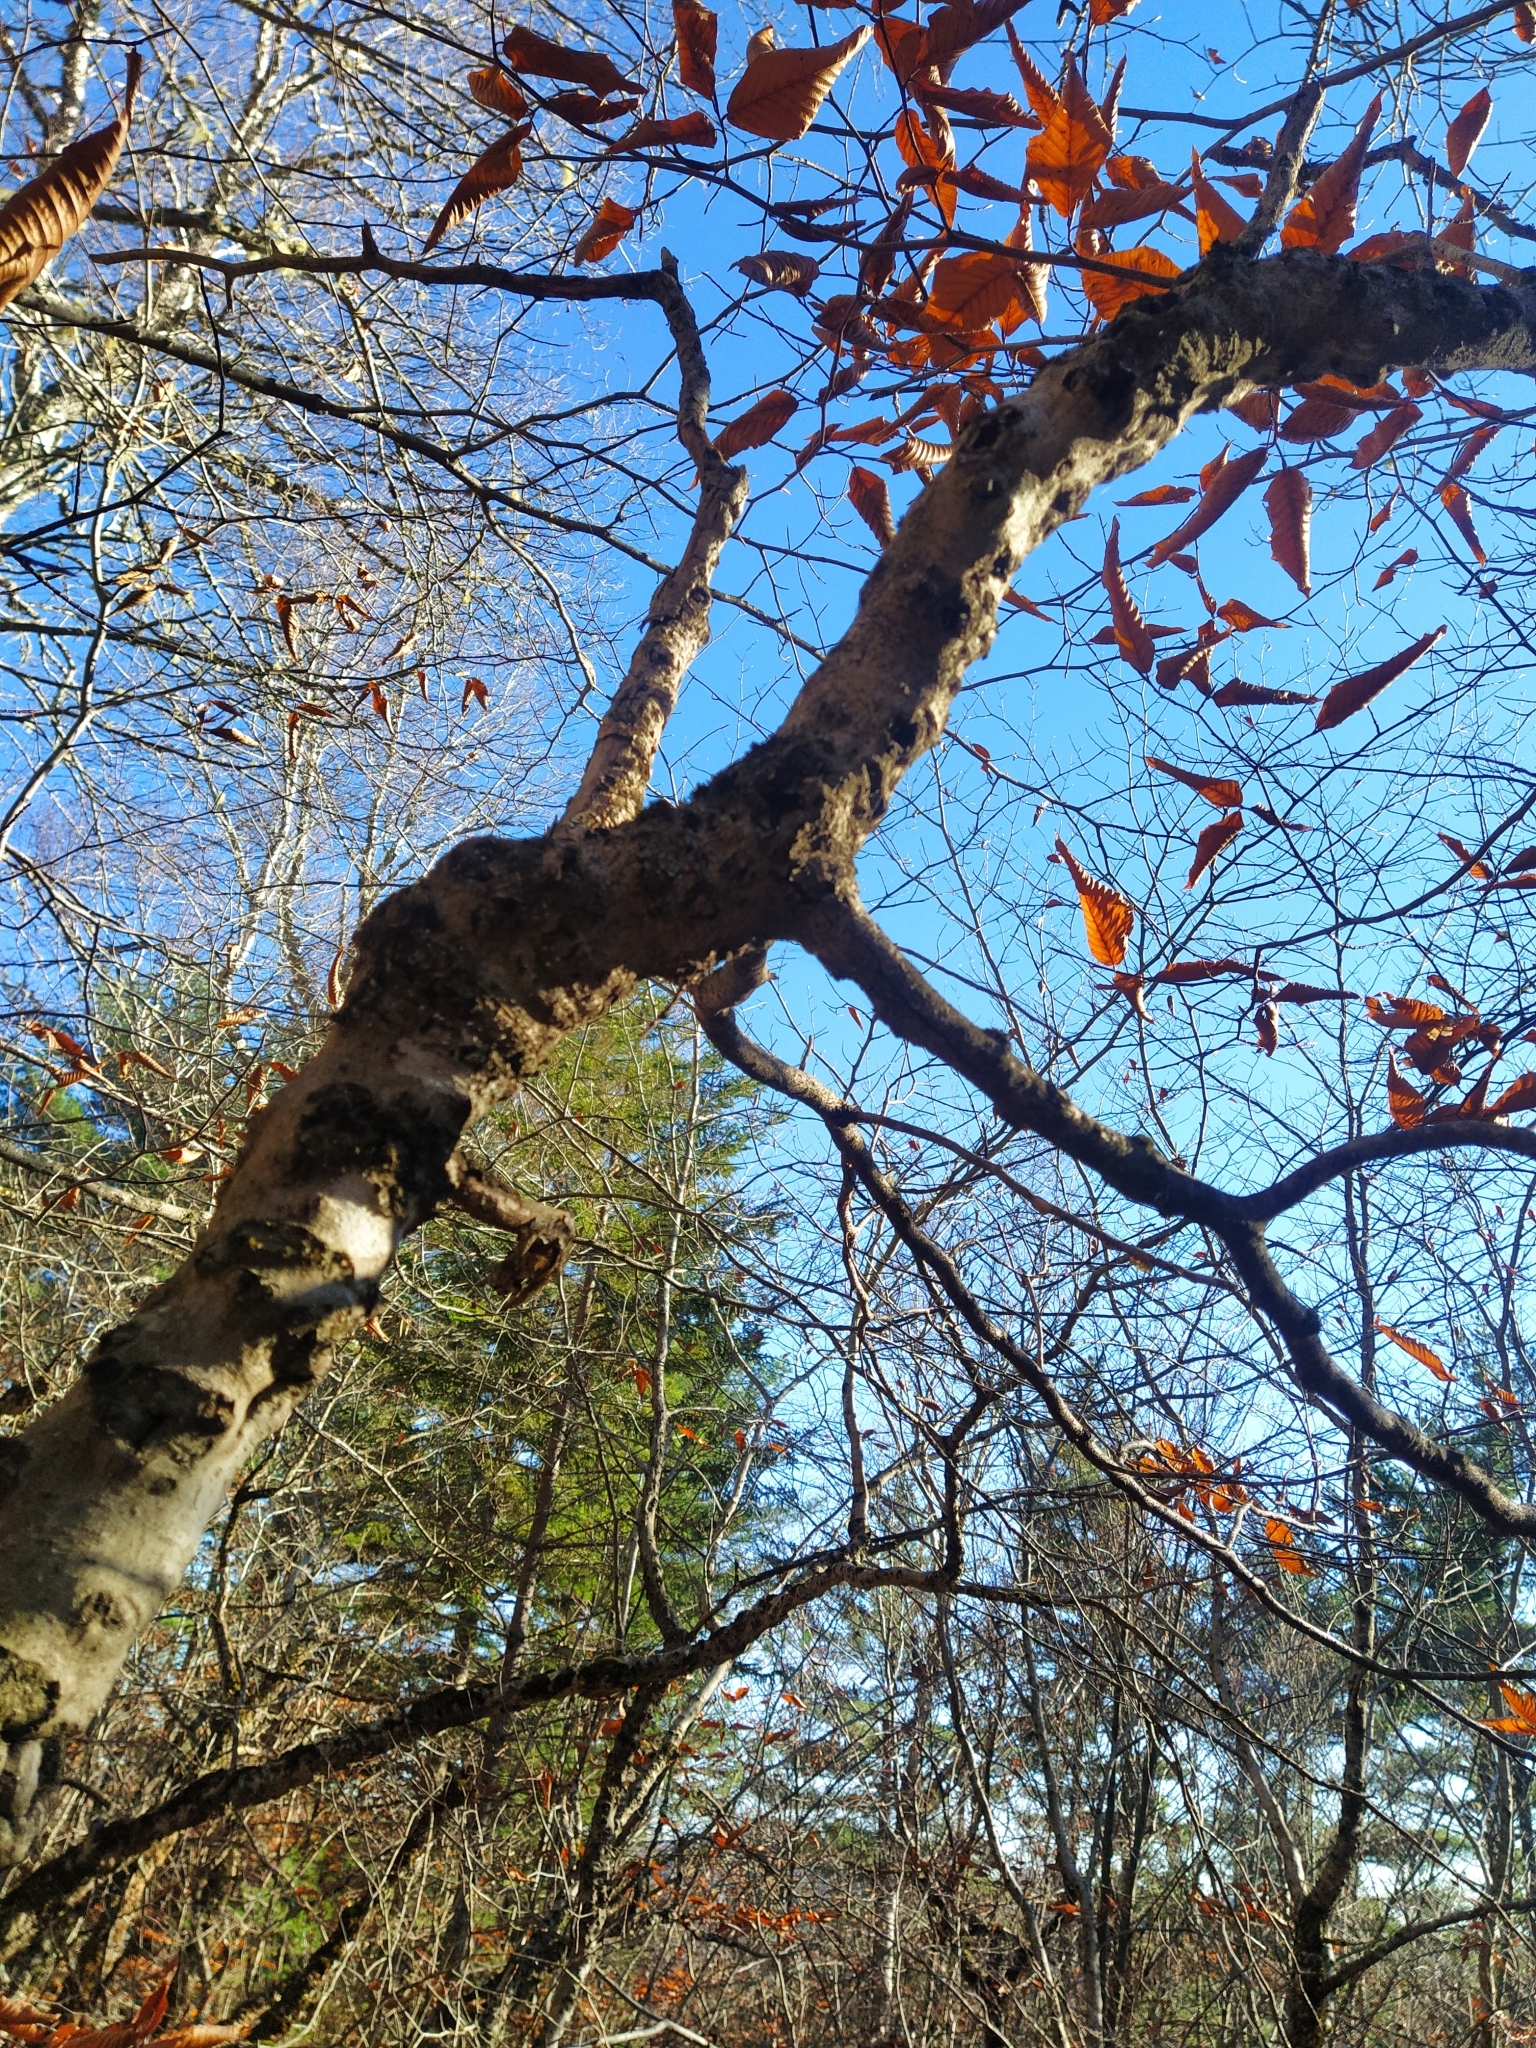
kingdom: Plantae
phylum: Tracheophyta
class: Magnoliopsida
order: Fagales
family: Fagaceae
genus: Fagus
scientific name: Fagus grandifolia
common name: American beech
